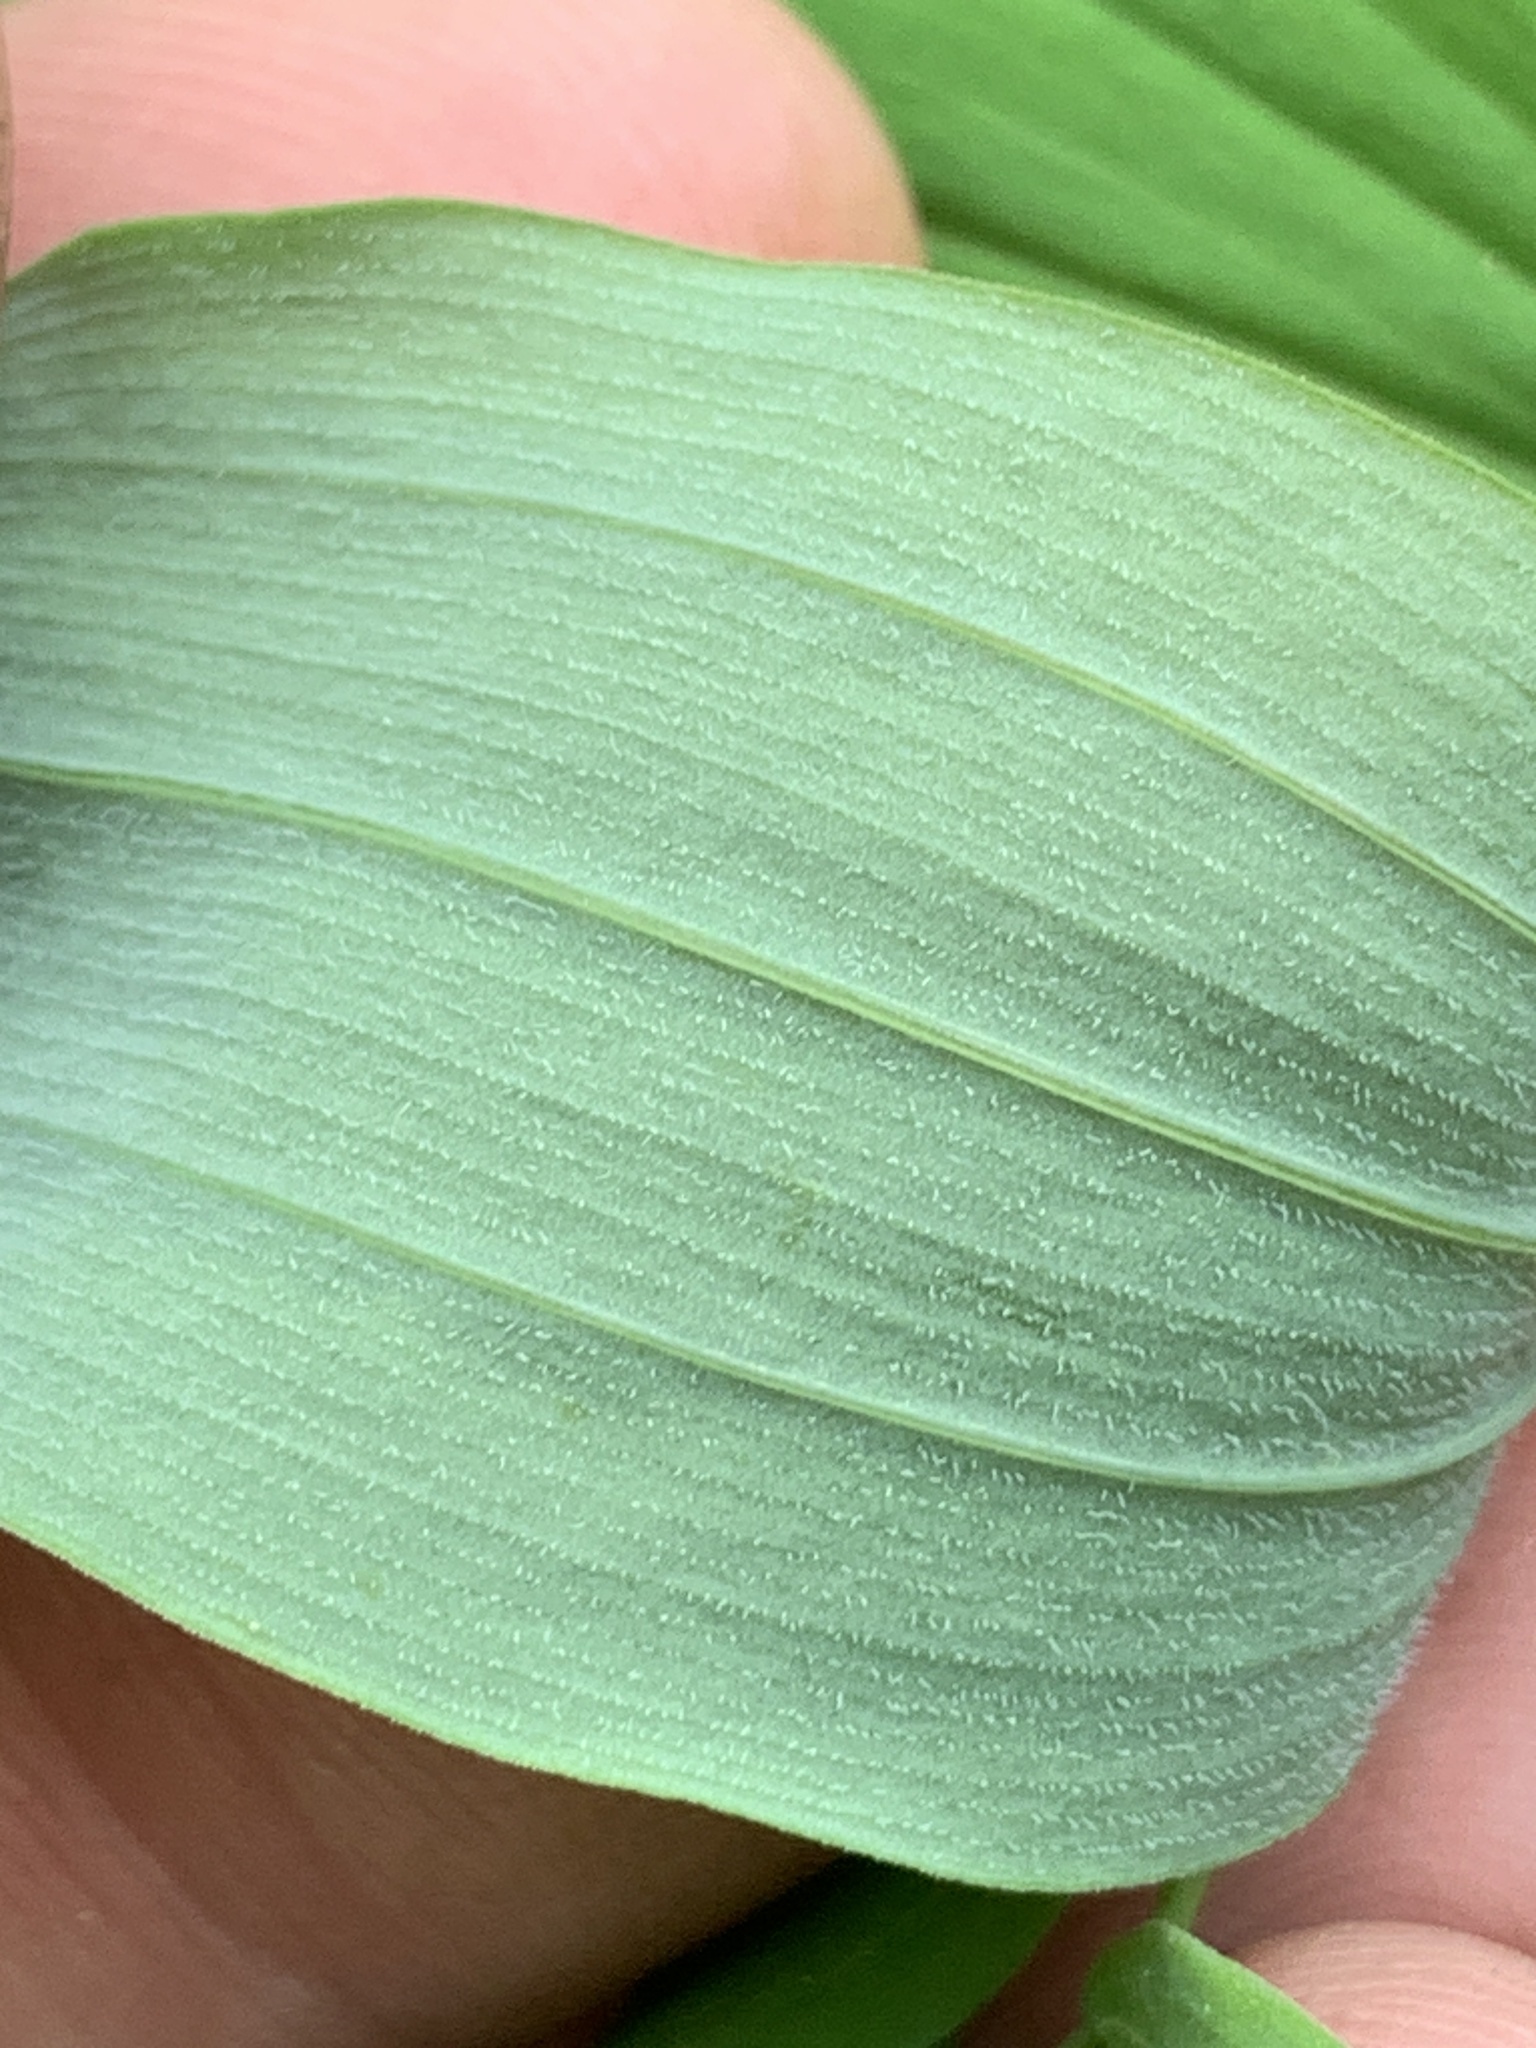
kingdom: Plantae
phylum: Tracheophyta
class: Liliopsida
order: Asparagales
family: Asparagaceae
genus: Polygonatum
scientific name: Polygonatum pubescens
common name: Downy solomon's seal
